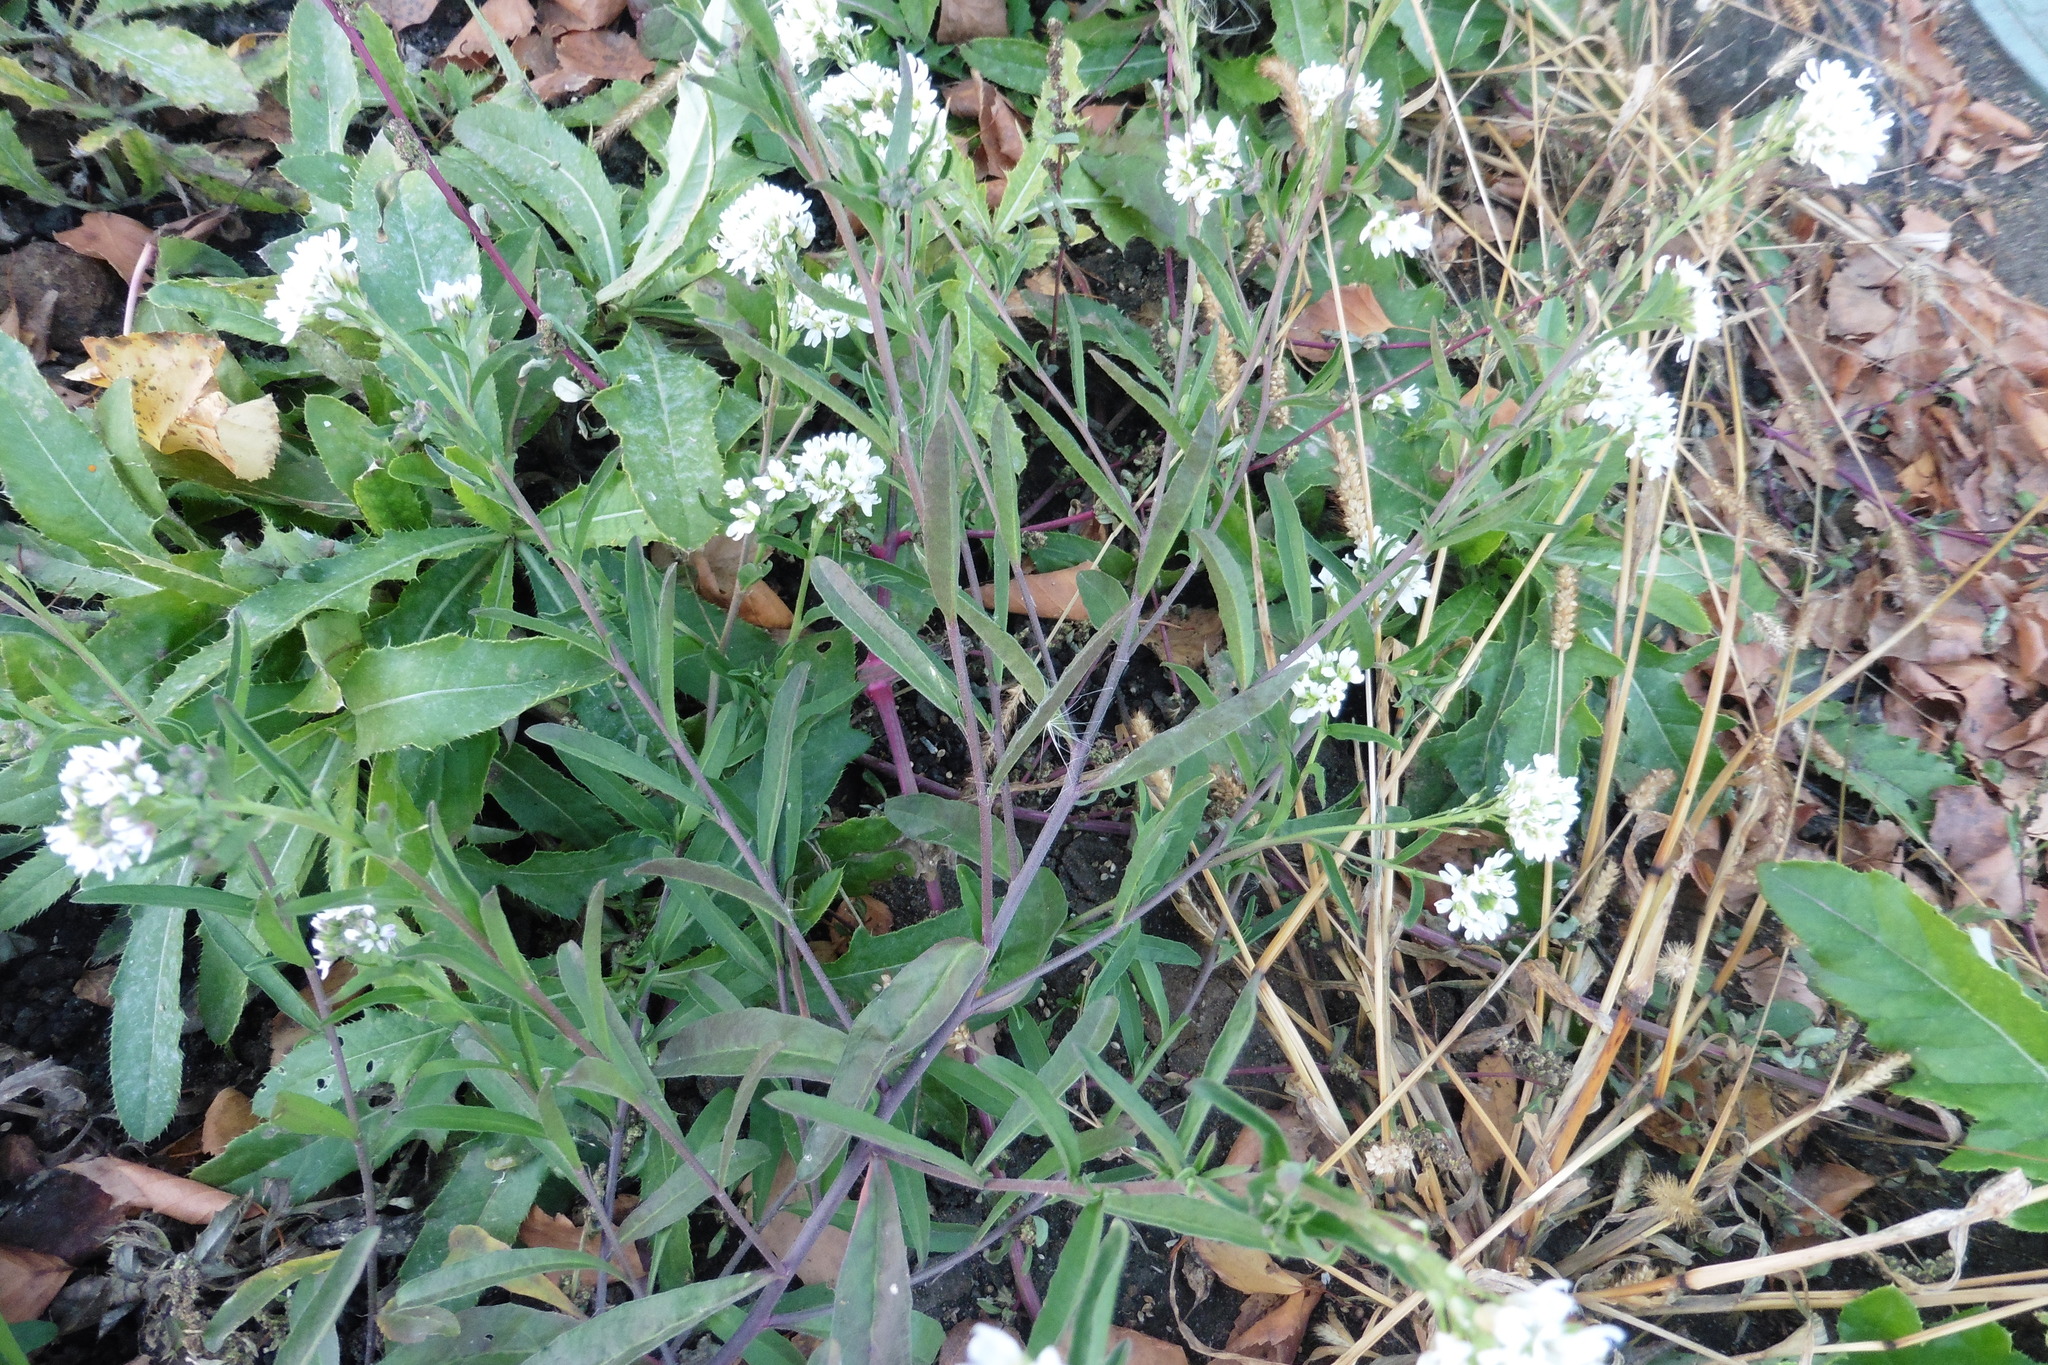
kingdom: Plantae
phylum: Tracheophyta
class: Magnoliopsida
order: Brassicales
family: Brassicaceae
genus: Berteroa
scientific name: Berteroa incana
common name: Hoary alison
